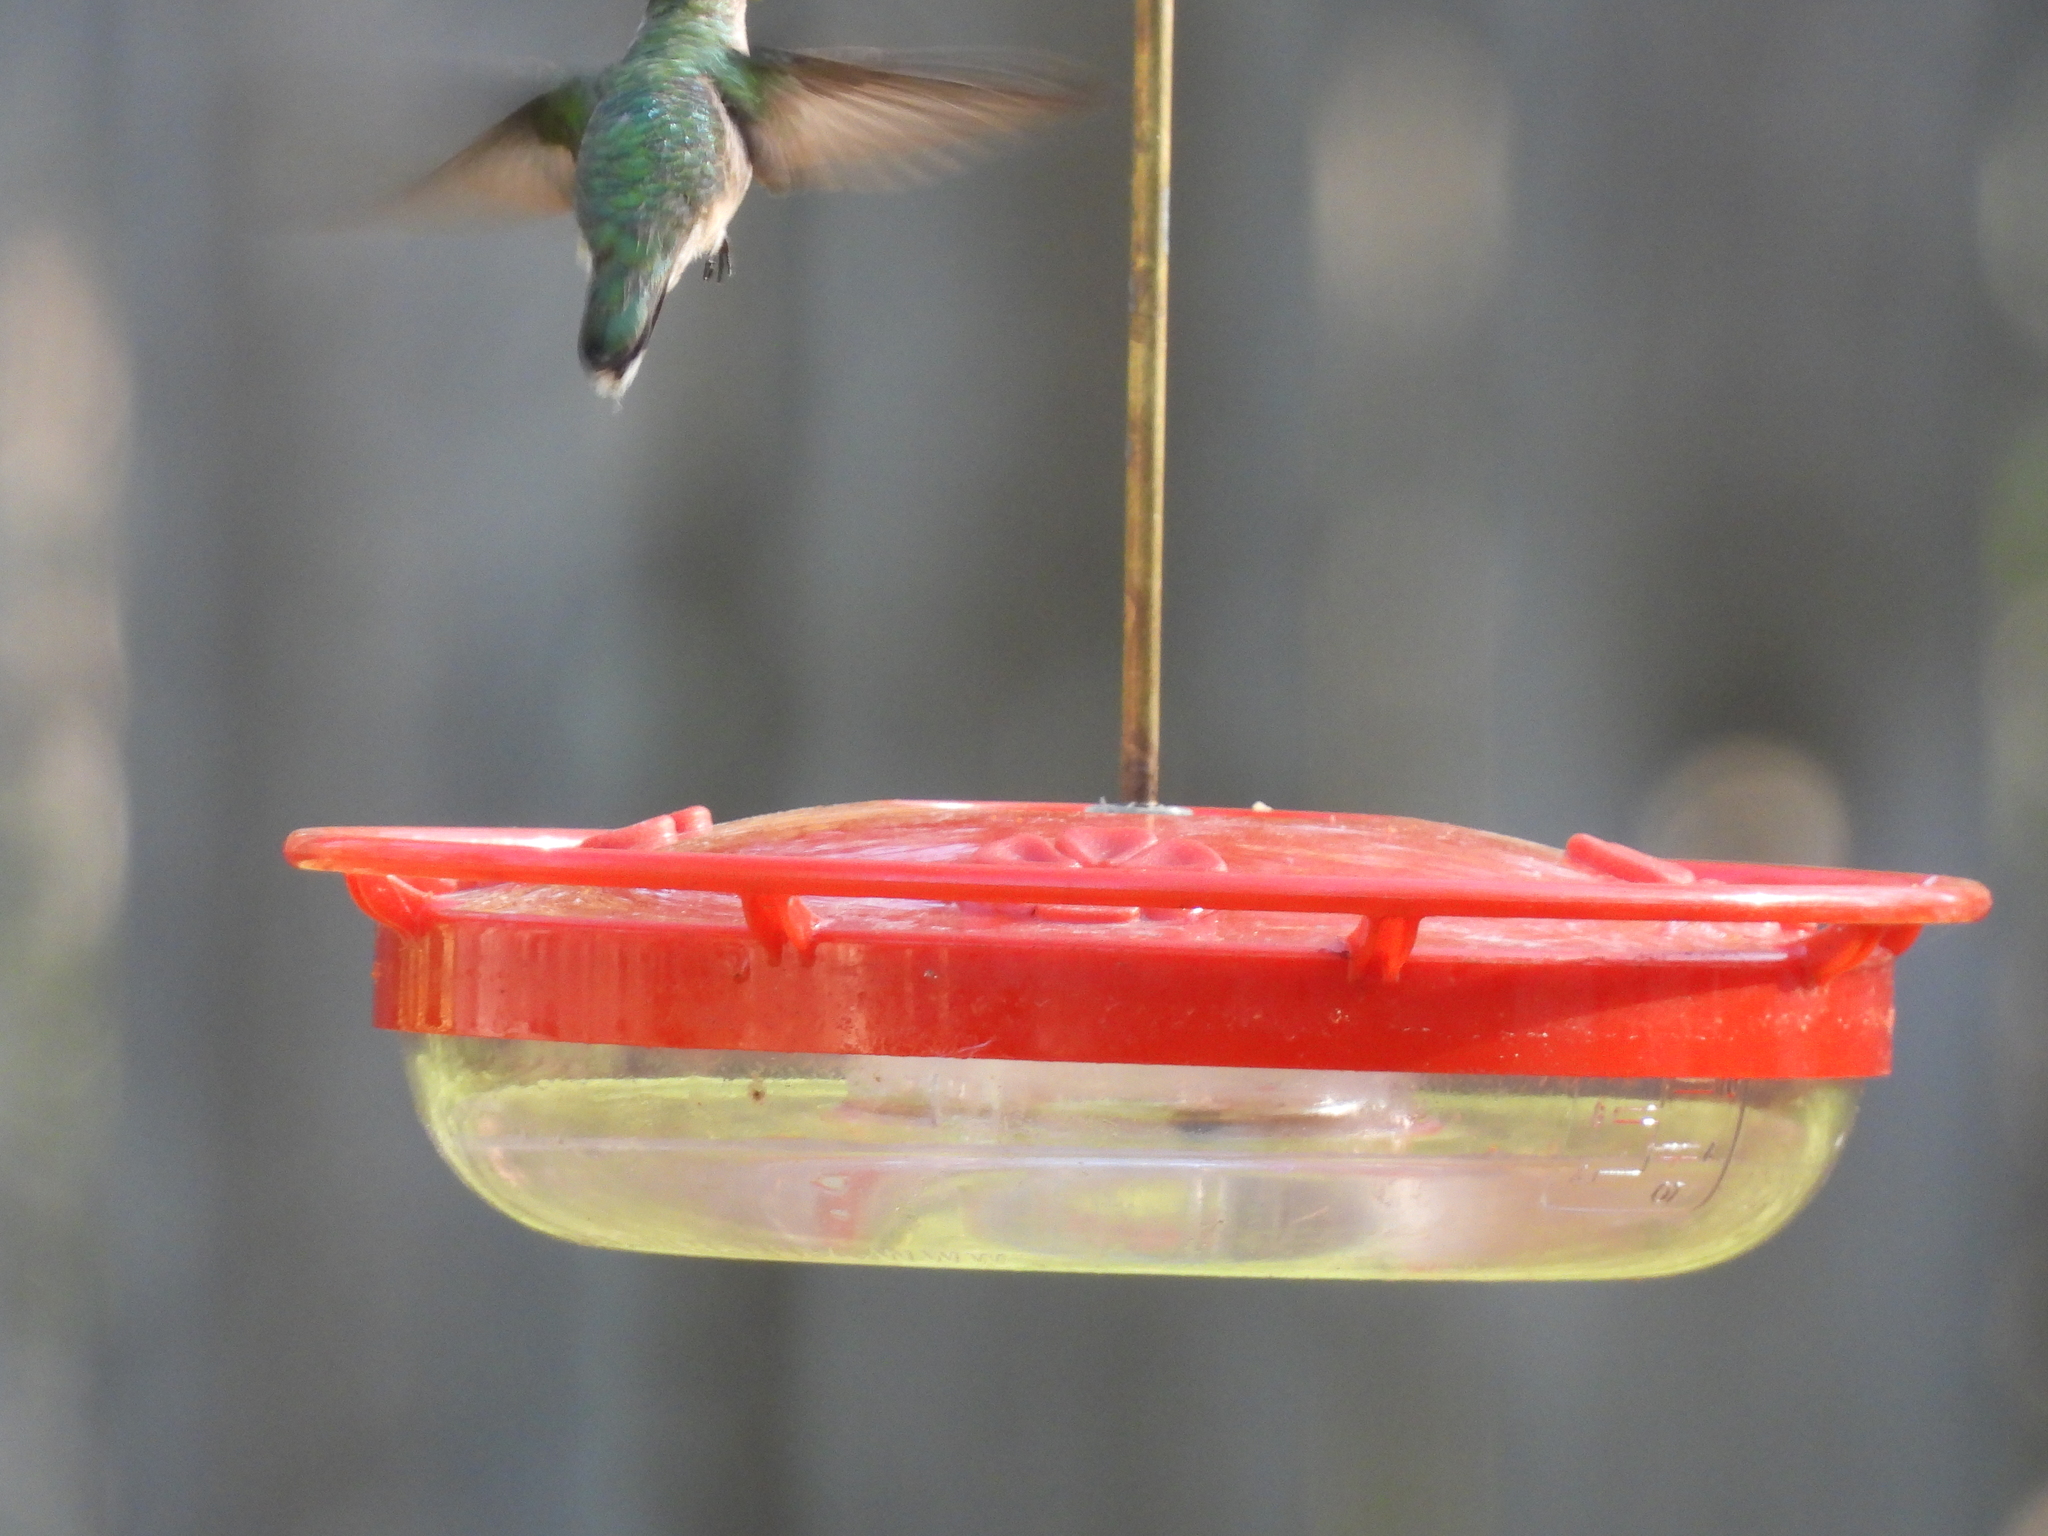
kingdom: Animalia
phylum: Chordata
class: Aves
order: Apodiformes
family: Trochilidae
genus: Archilochus
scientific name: Archilochus colubris
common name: Ruby-throated hummingbird
